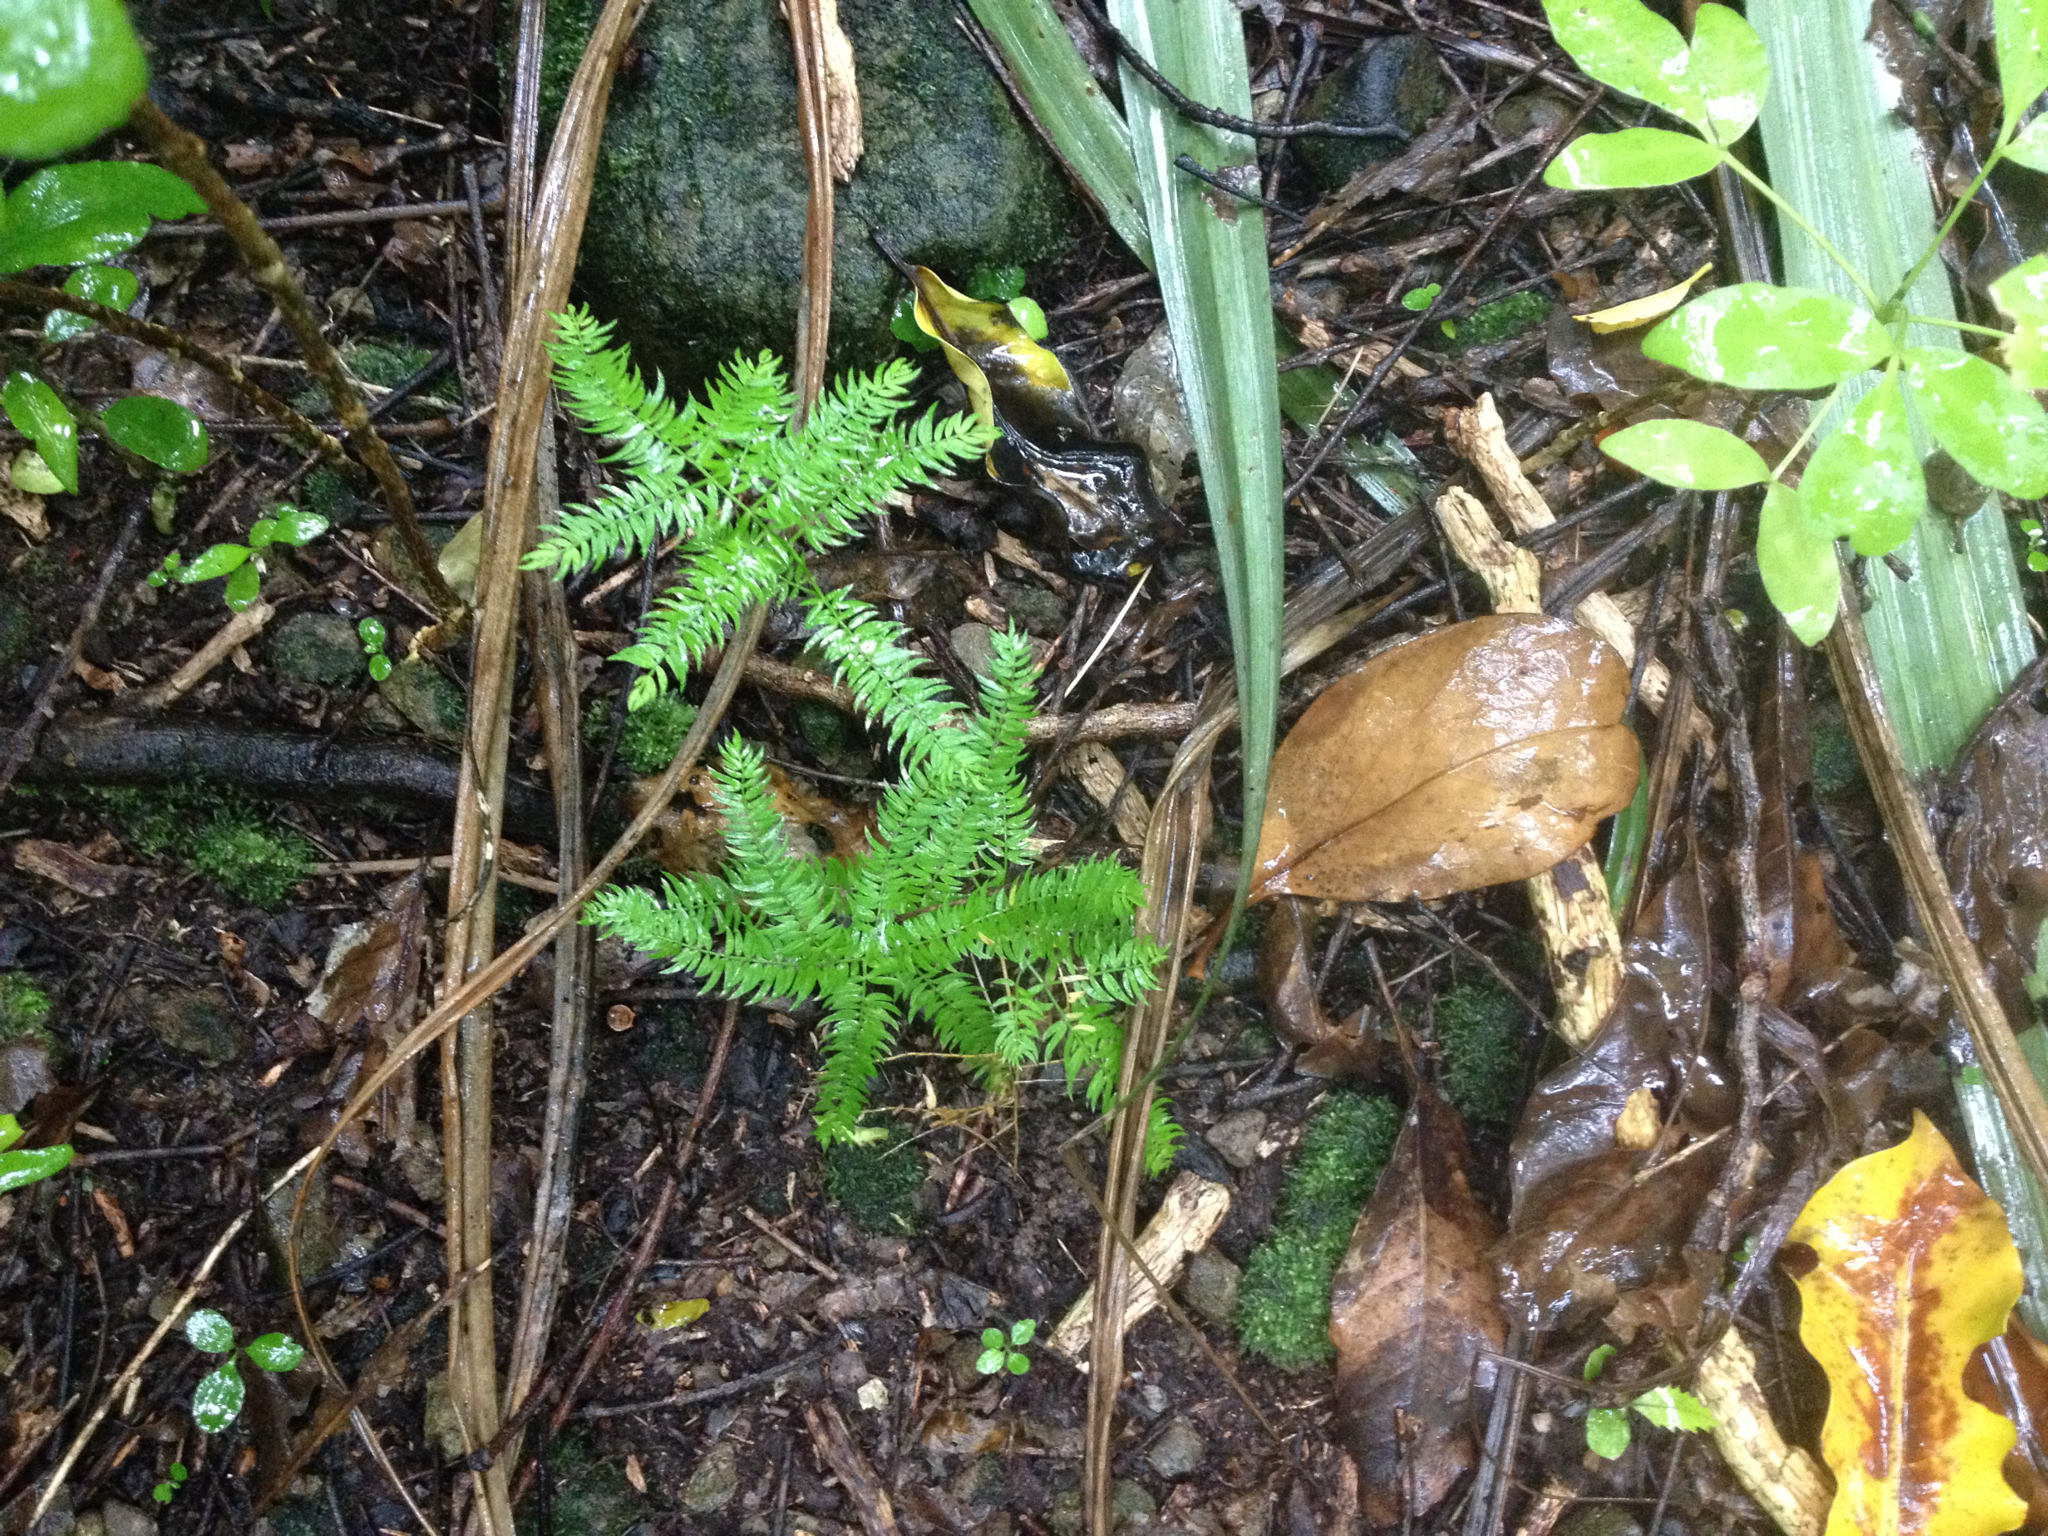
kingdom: Plantae
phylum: Tracheophyta
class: Liliopsida
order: Asparagales
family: Asparagaceae
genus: Asparagus
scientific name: Asparagus scandens
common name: Asparagus-fern
